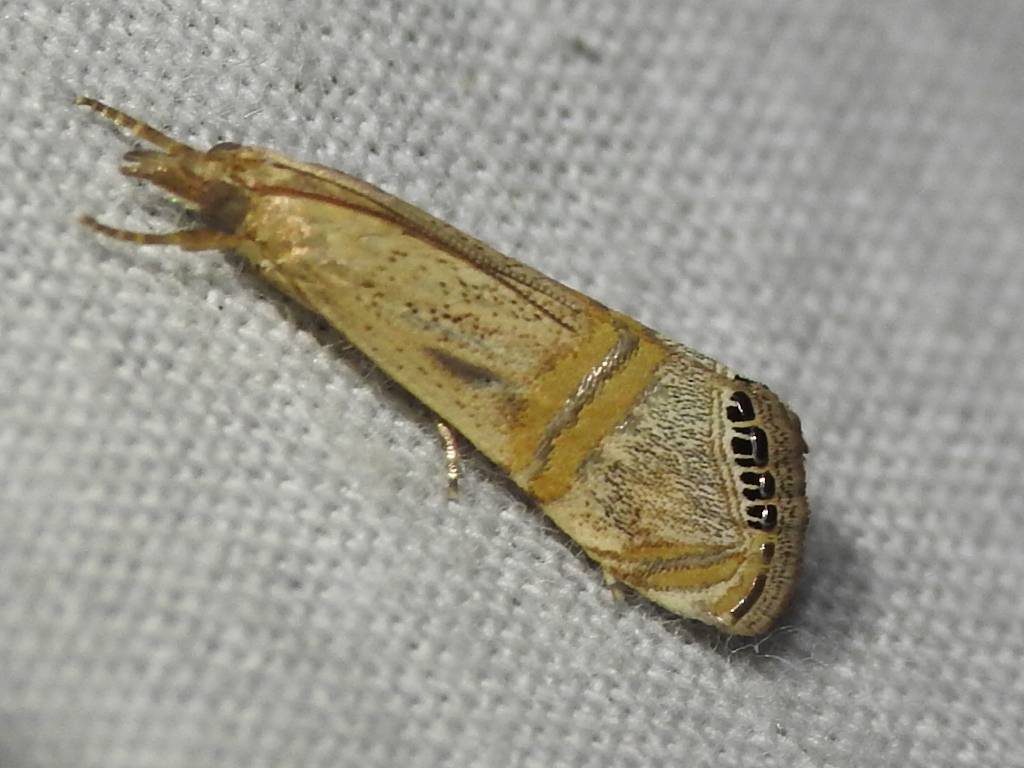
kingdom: Animalia
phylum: Arthropoda
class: Insecta
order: Lepidoptera
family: Crambidae
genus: Euchromius
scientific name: Euchromius ocellea
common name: Necklace veneer moth
